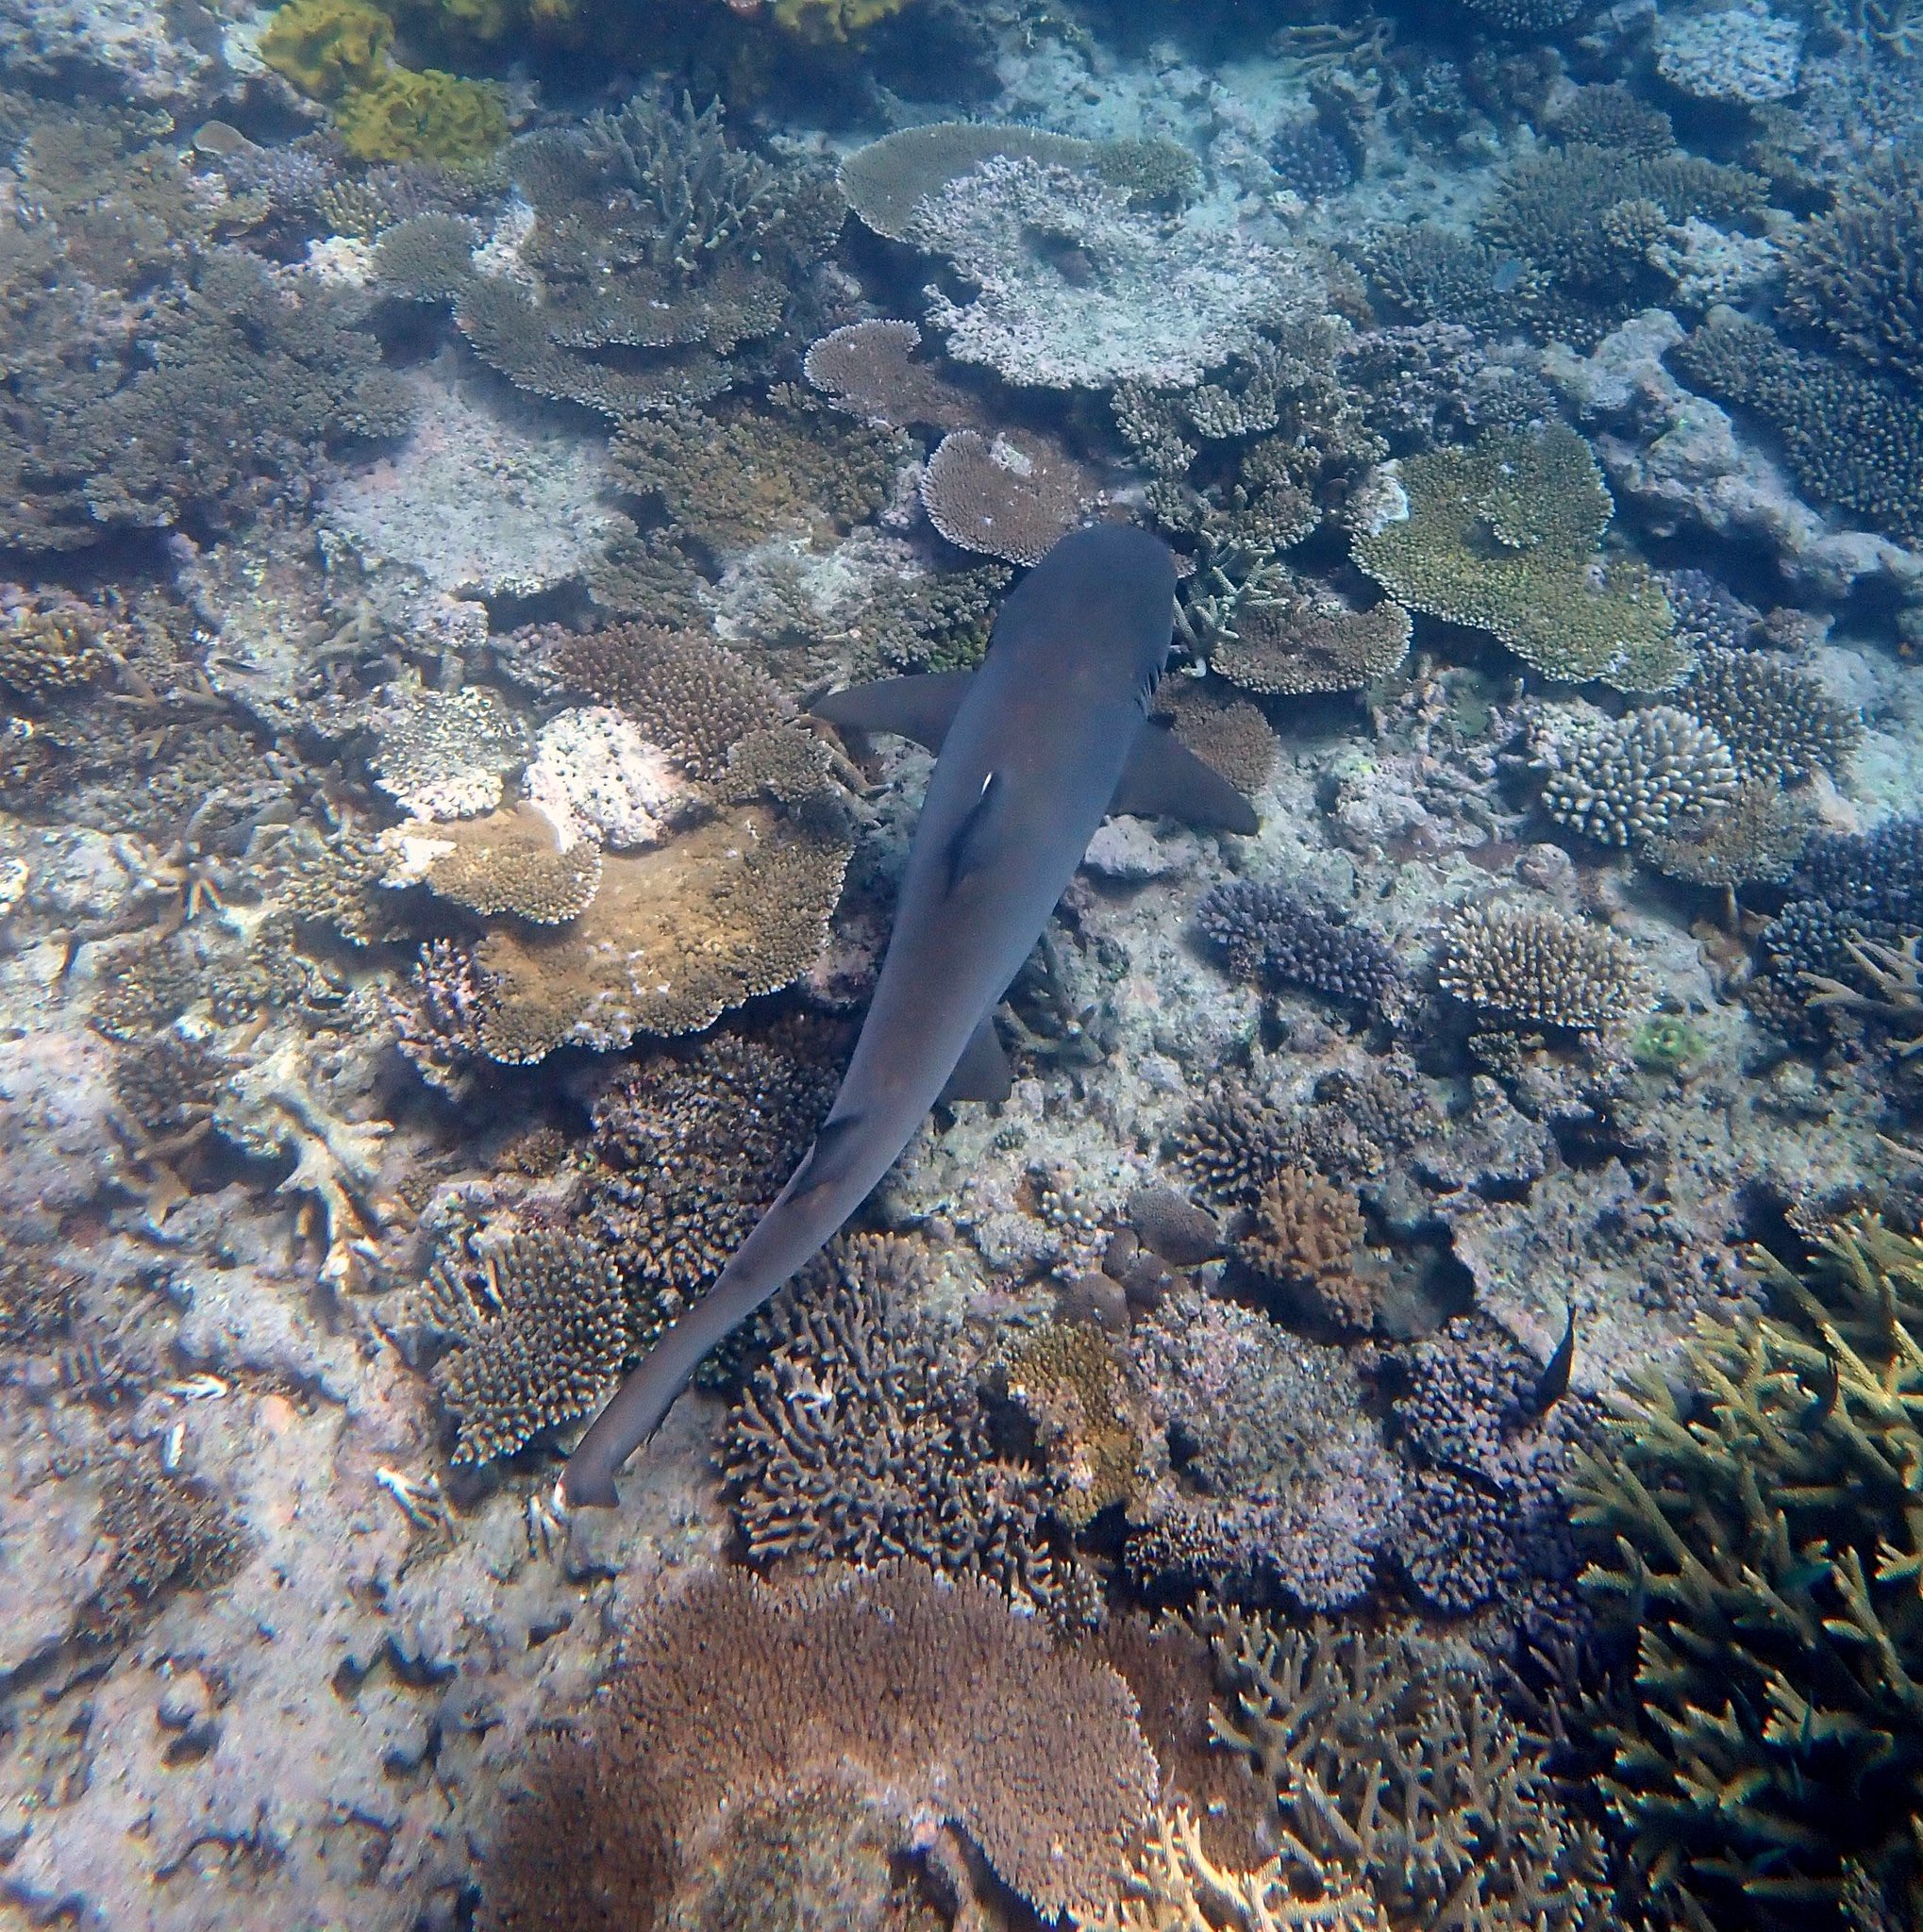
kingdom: Animalia
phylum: Chordata
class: Elasmobranchii
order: Carcharhiniformes
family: Carcharhinidae
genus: Triaenodon
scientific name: Triaenodon obesus
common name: Whitetip reef shark
